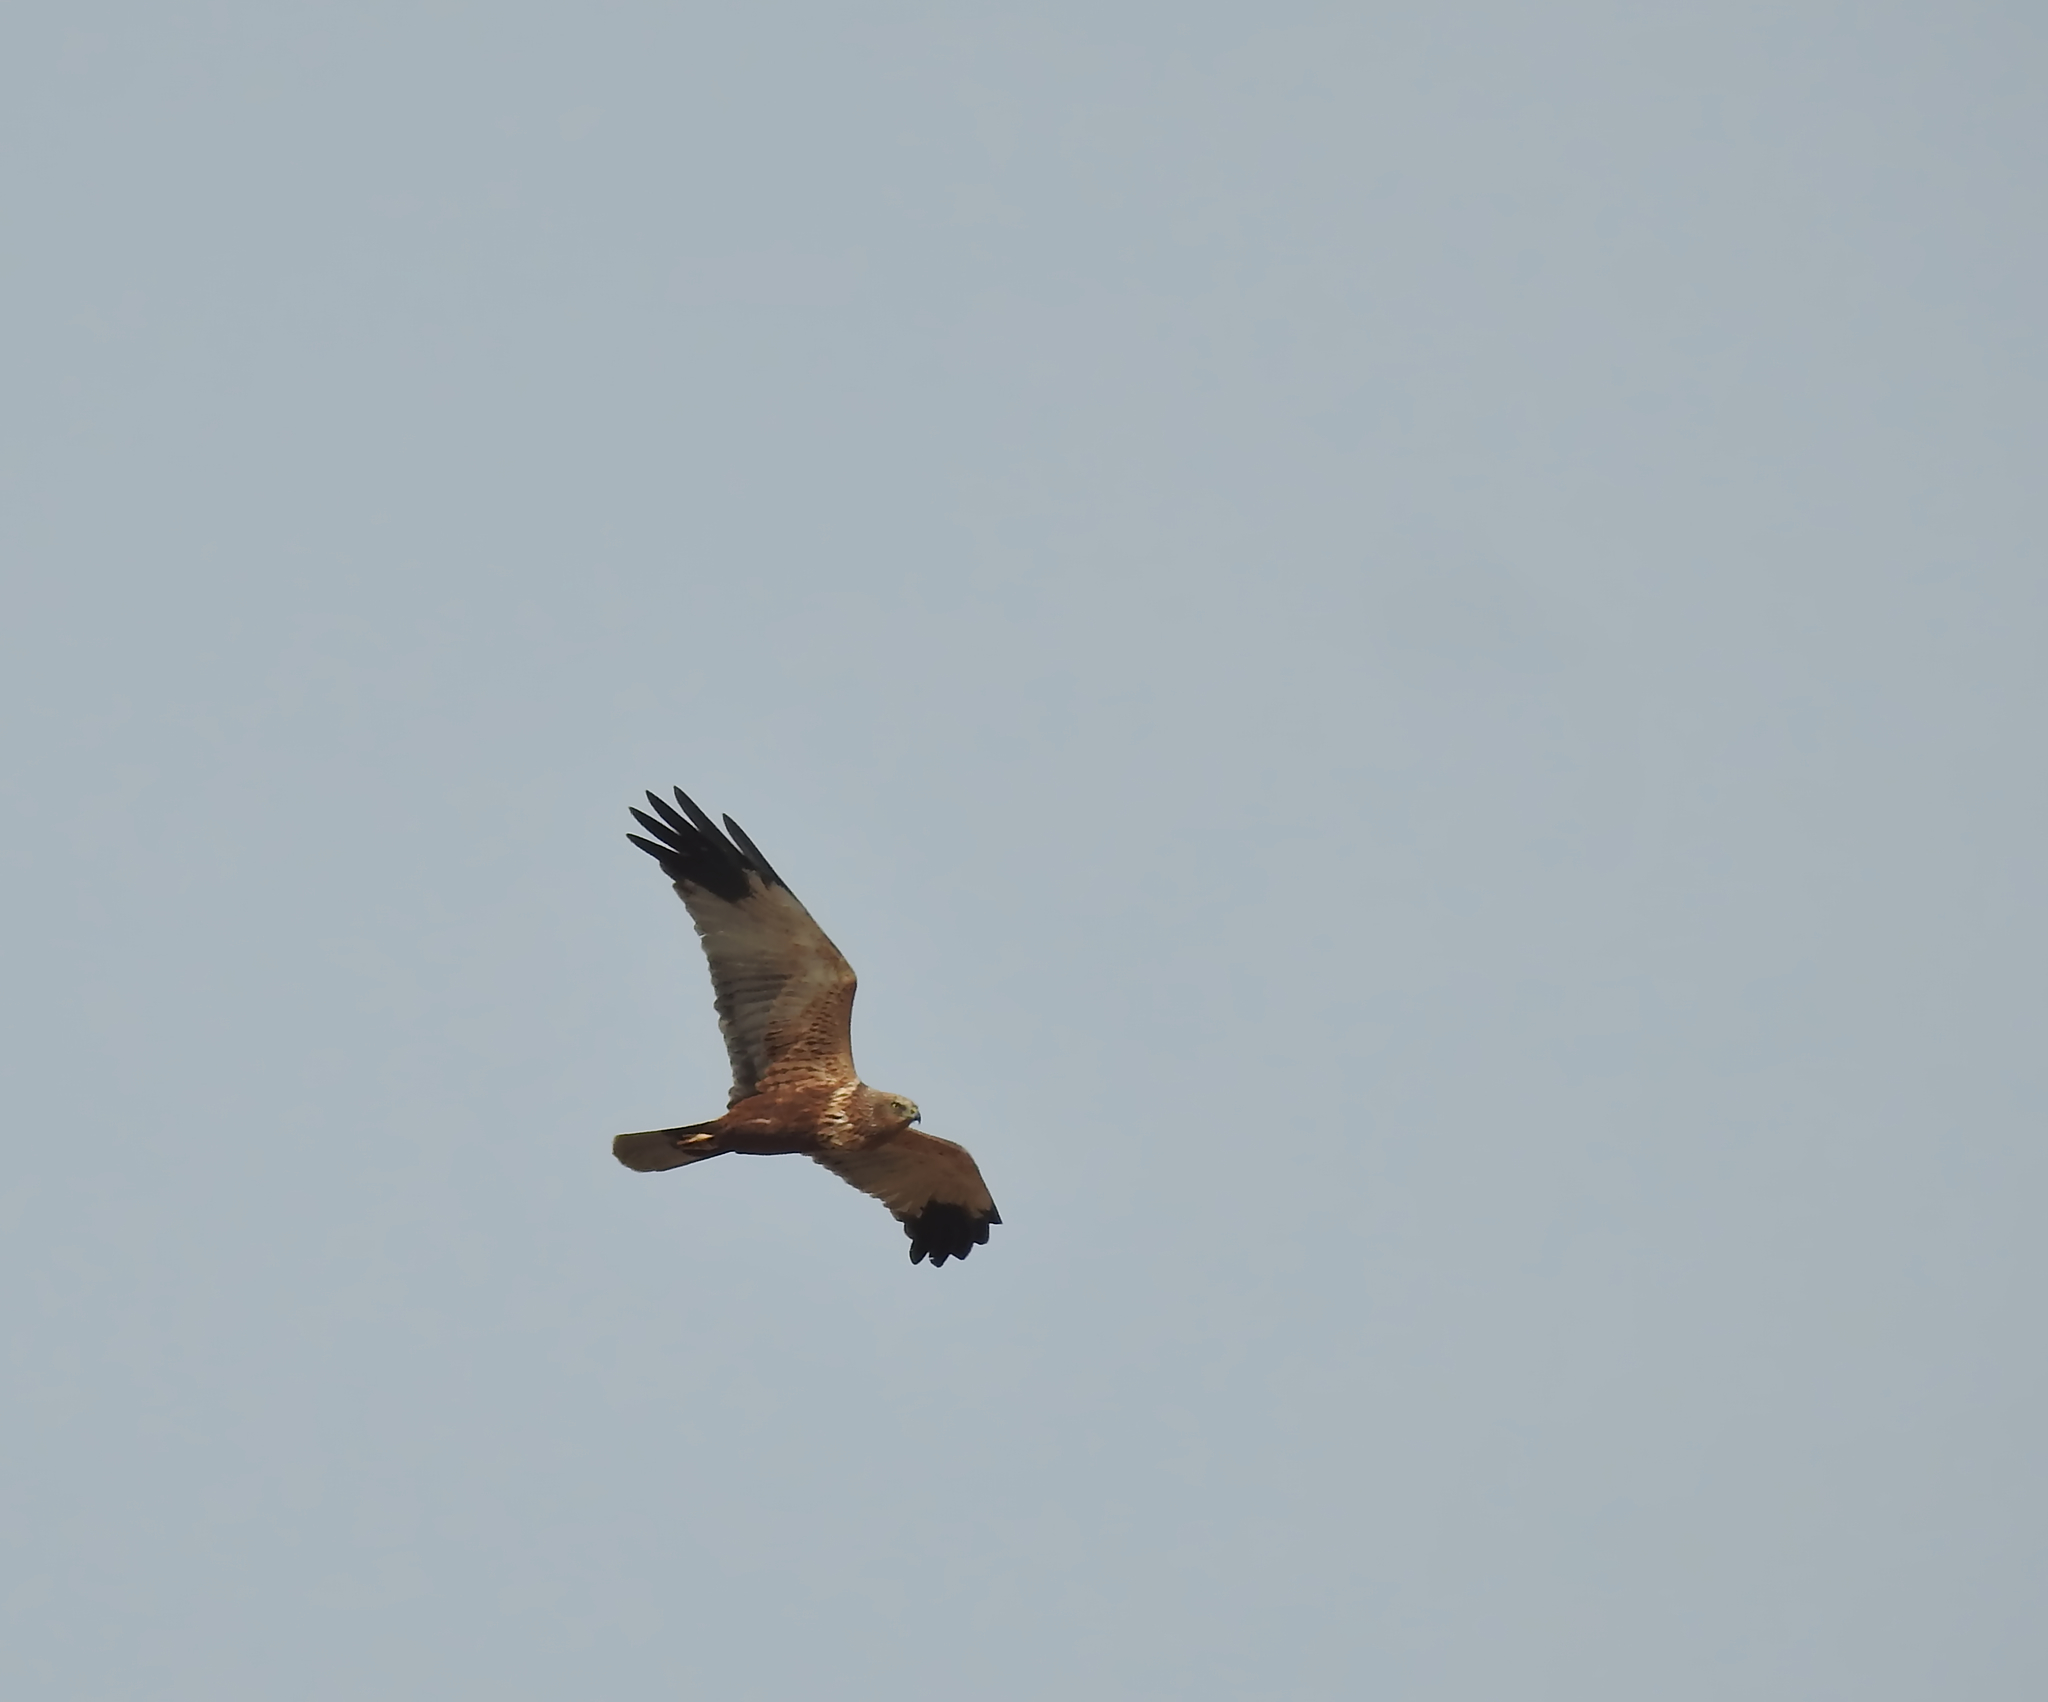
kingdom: Animalia
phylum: Chordata
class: Aves
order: Accipitriformes
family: Accipitridae
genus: Circus
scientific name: Circus aeruginosus
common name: Western marsh harrier
